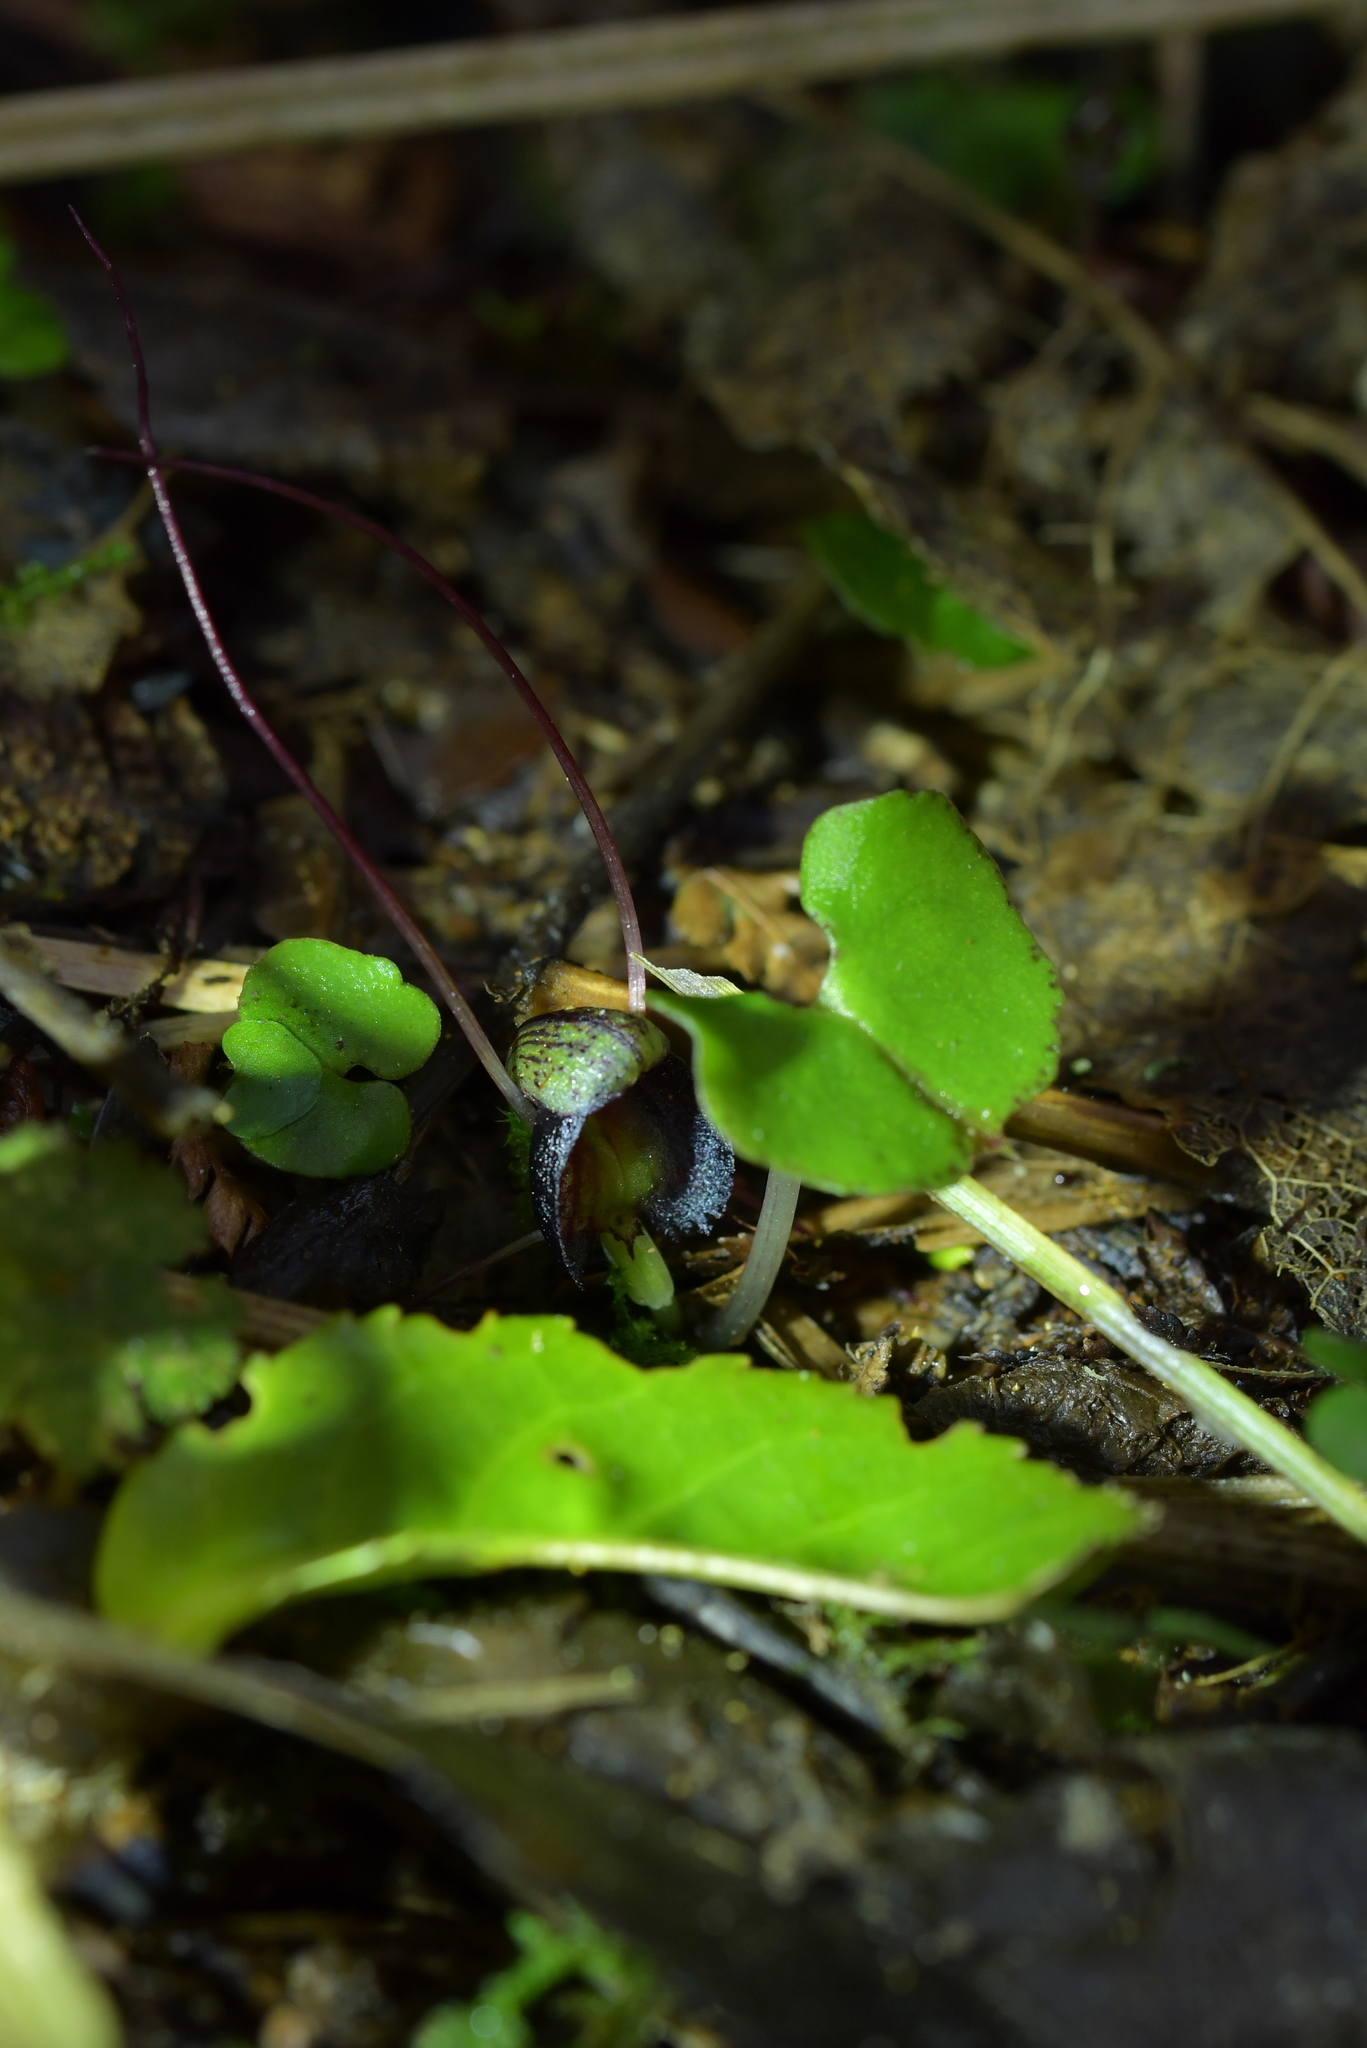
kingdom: Plantae
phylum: Tracheophyta
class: Liliopsida
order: Asparagales
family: Orchidaceae
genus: Corybas
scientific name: Corybas trilobus
